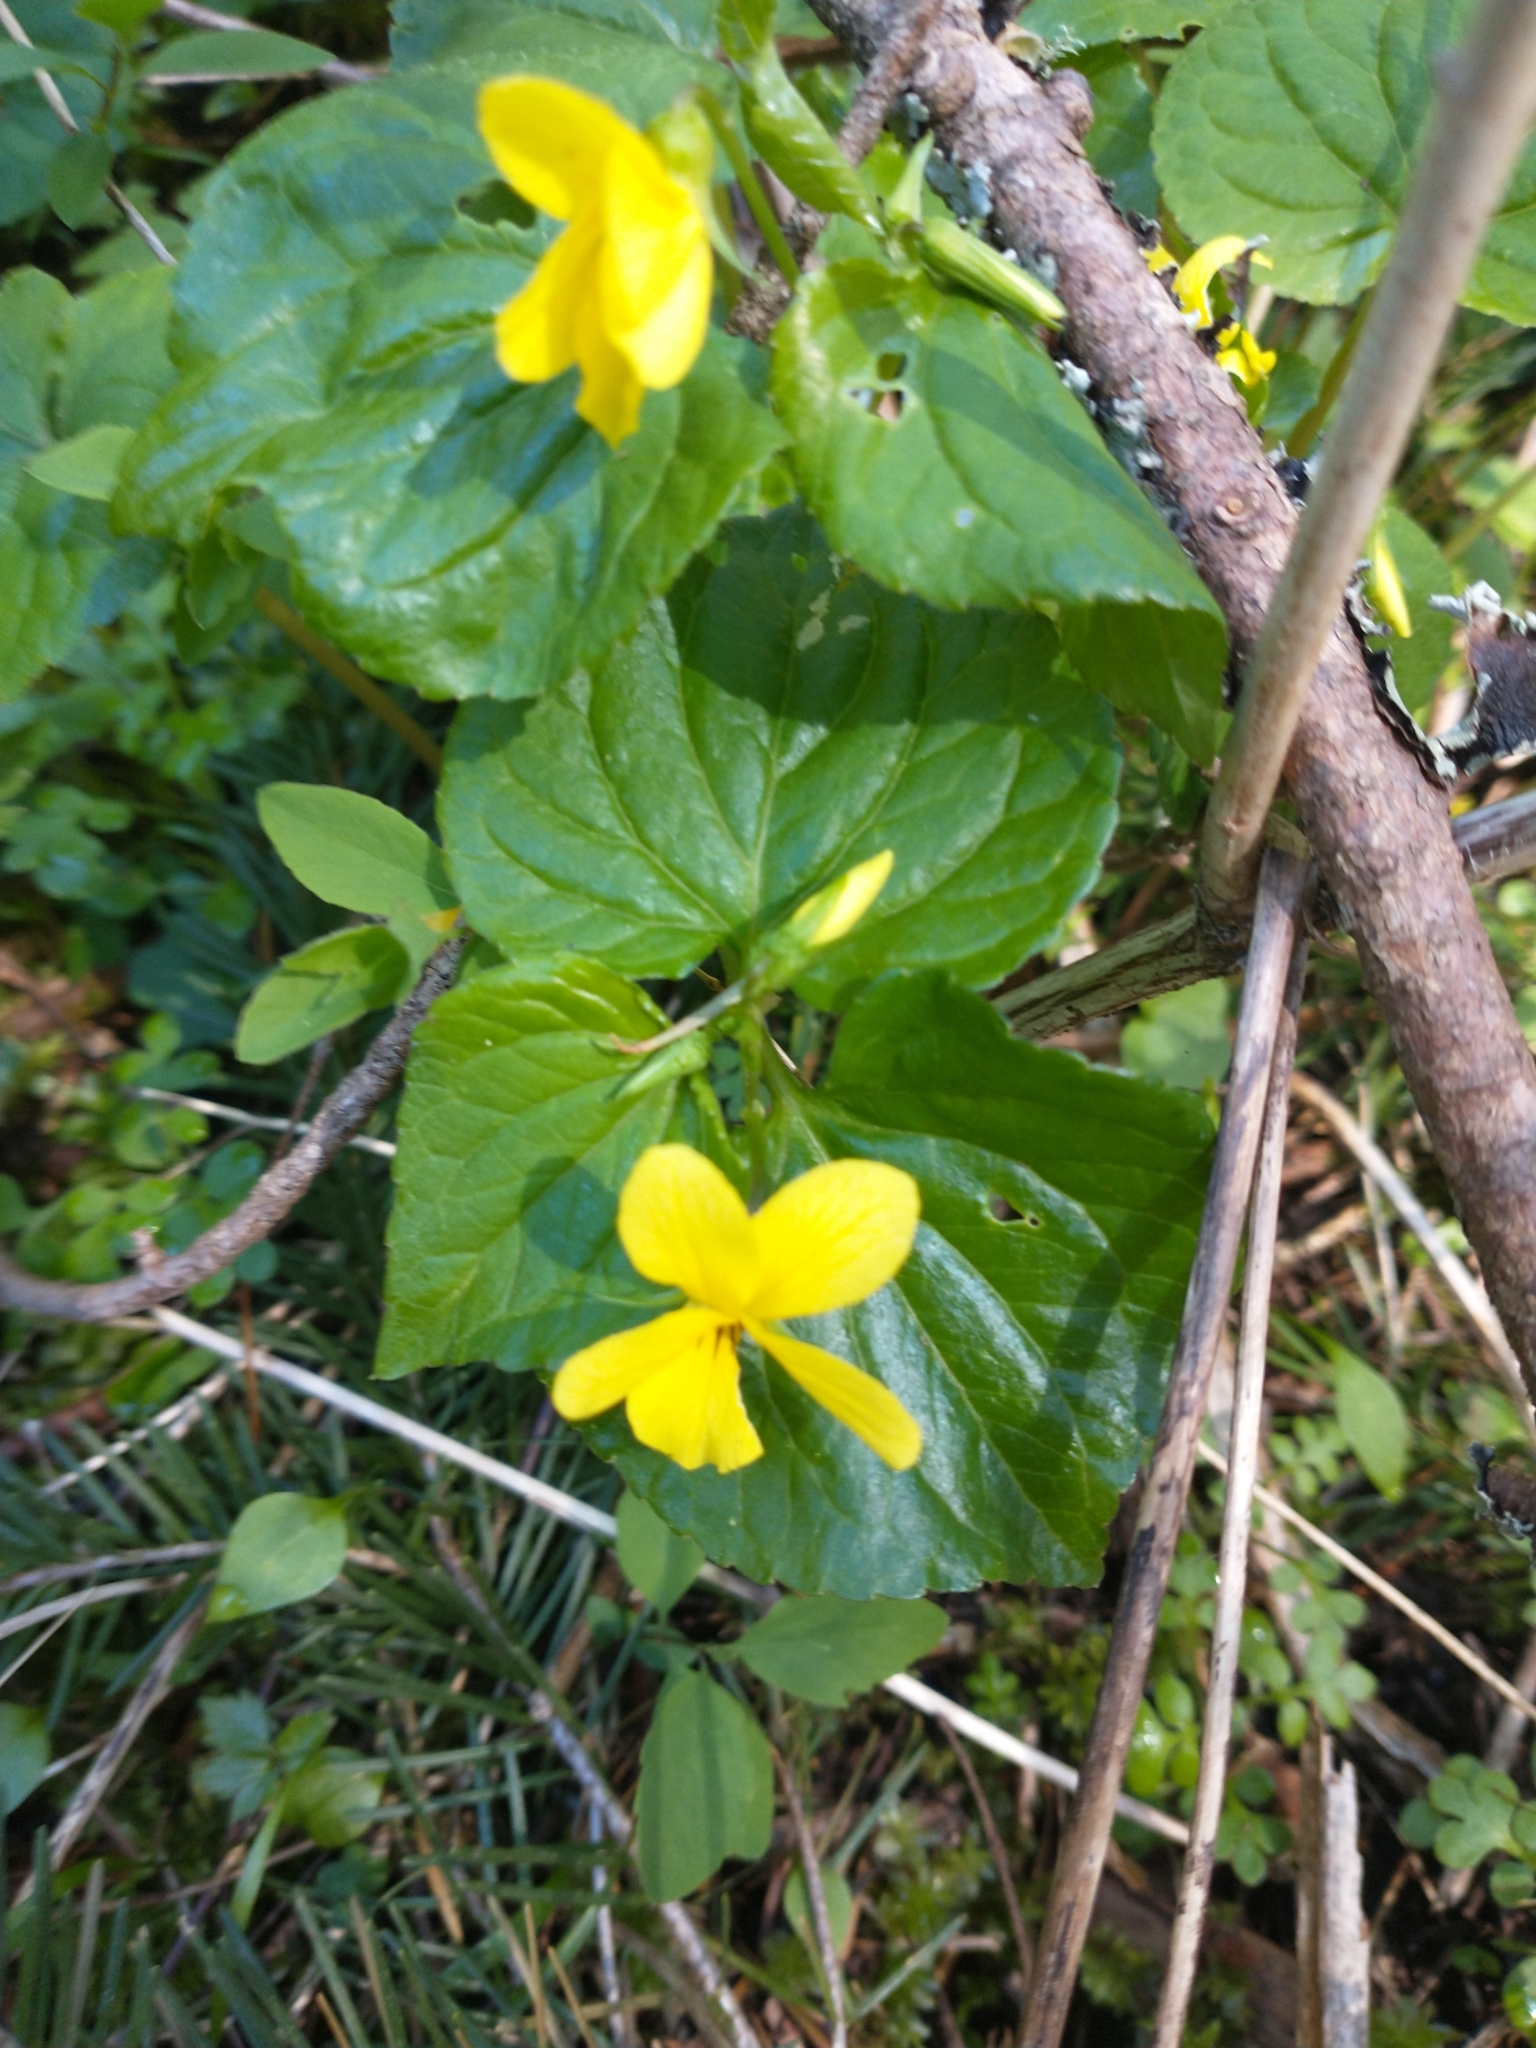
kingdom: Plantae
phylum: Tracheophyta
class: Magnoliopsida
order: Malpighiales
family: Violaceae
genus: Viola
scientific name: Viola glabella
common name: Stream violet
